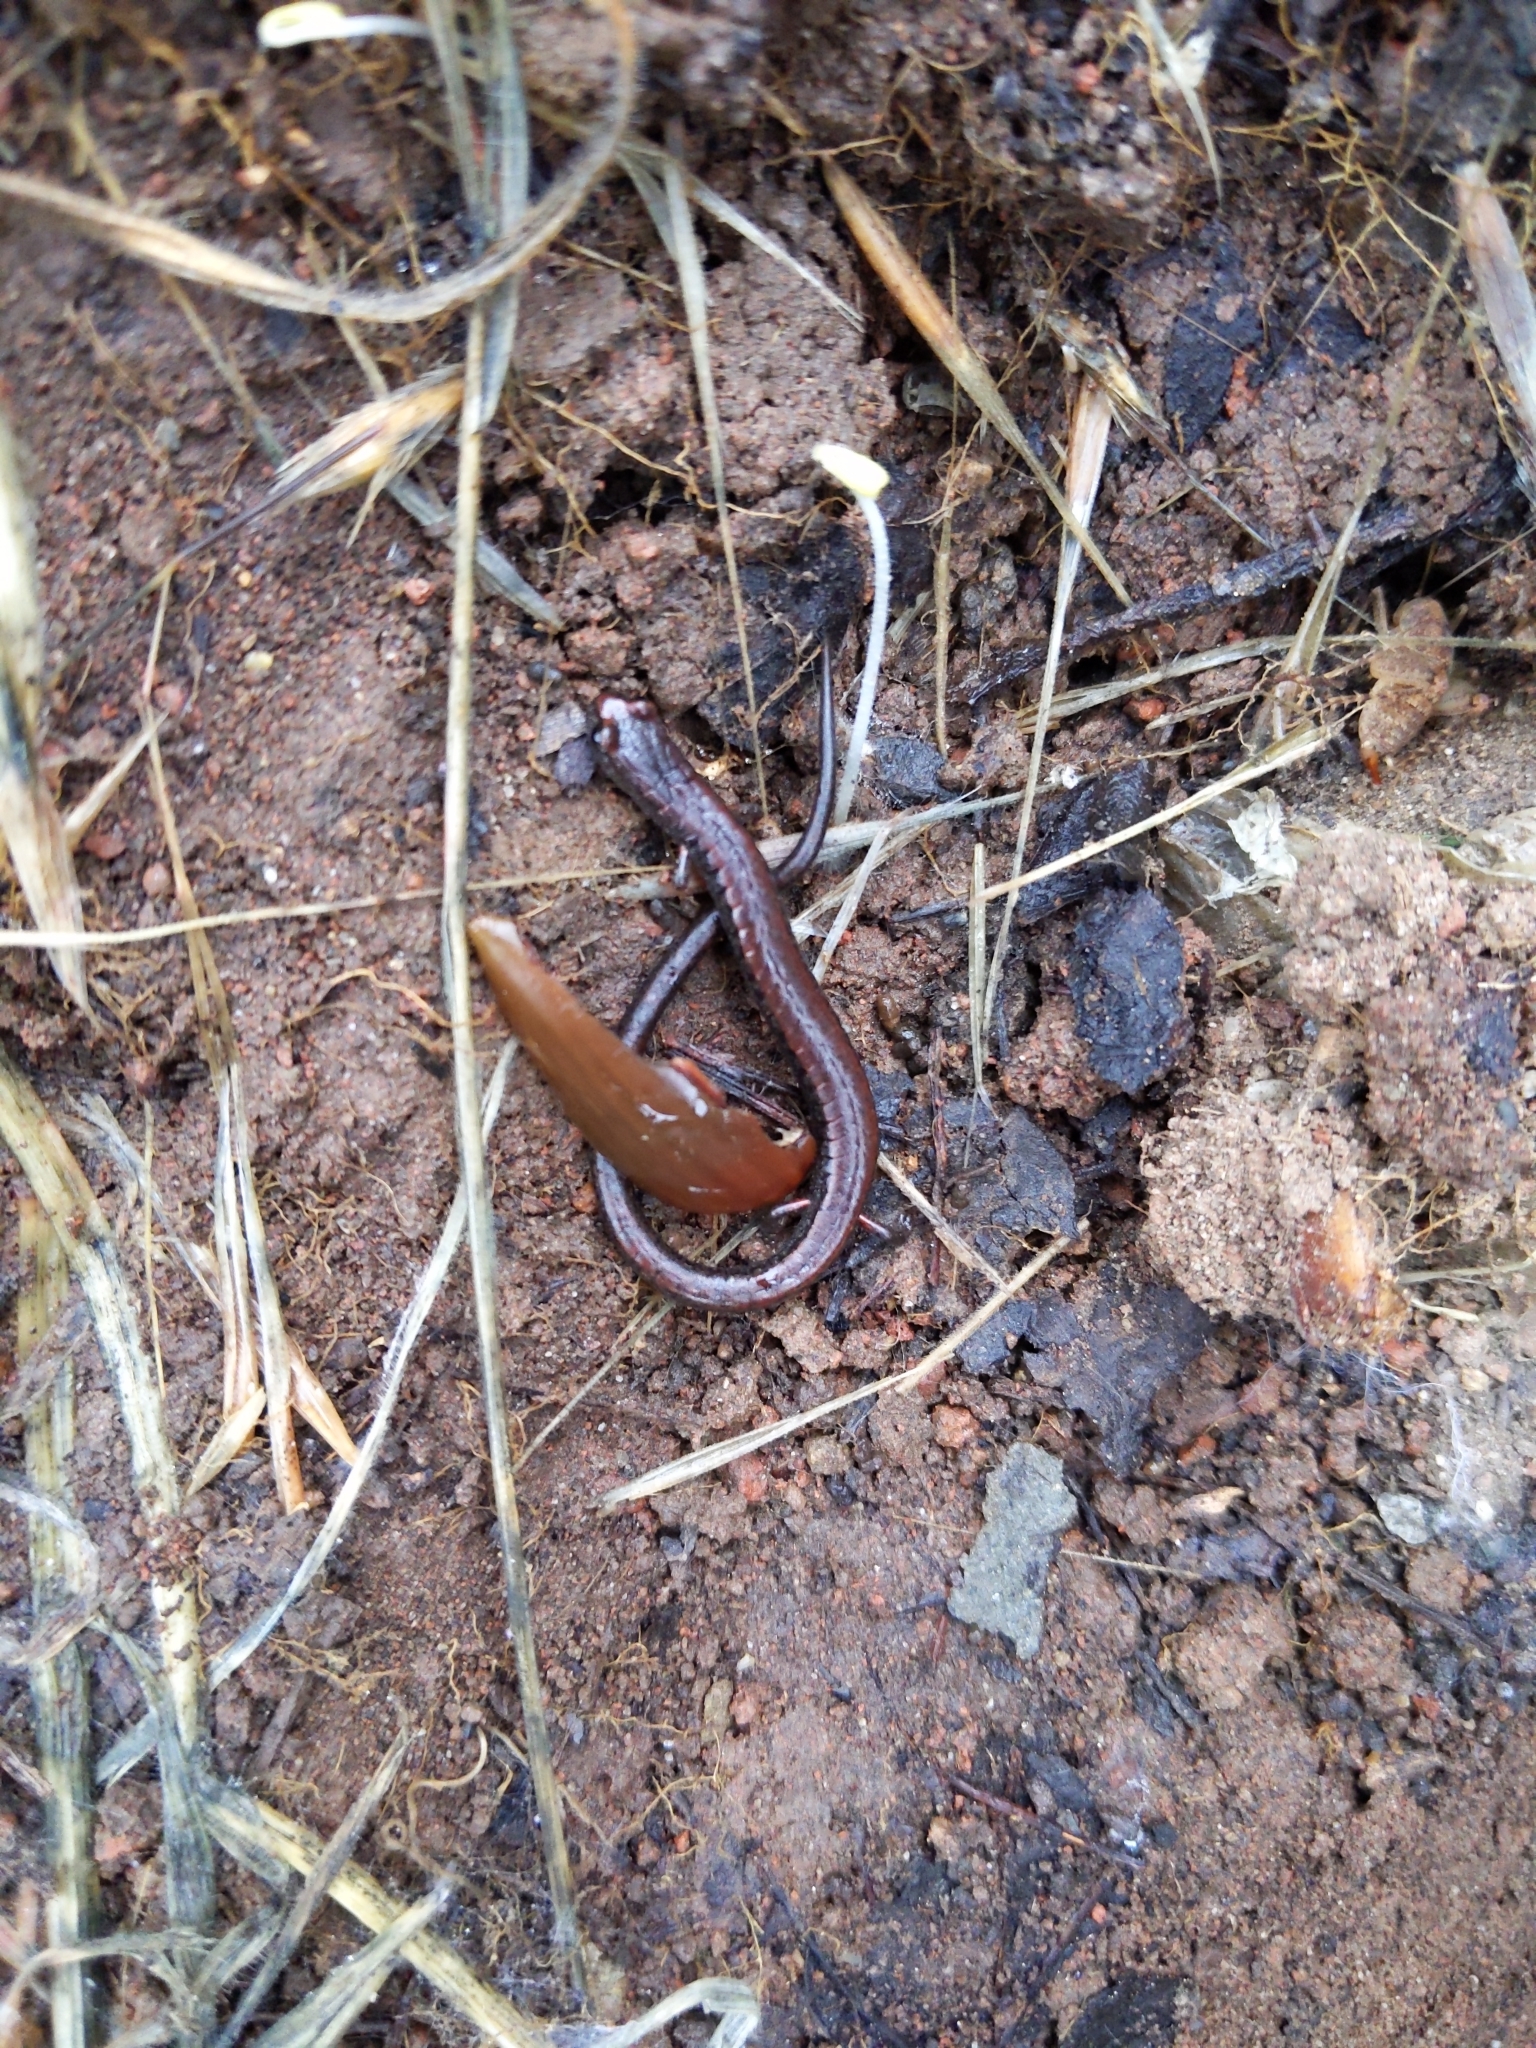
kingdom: Animalia
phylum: Chordata
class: Amphibia
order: Caudata
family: Plethodontidae
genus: Batrachoseps
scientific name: Batrachoseps attenuatus
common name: California slender salamander
